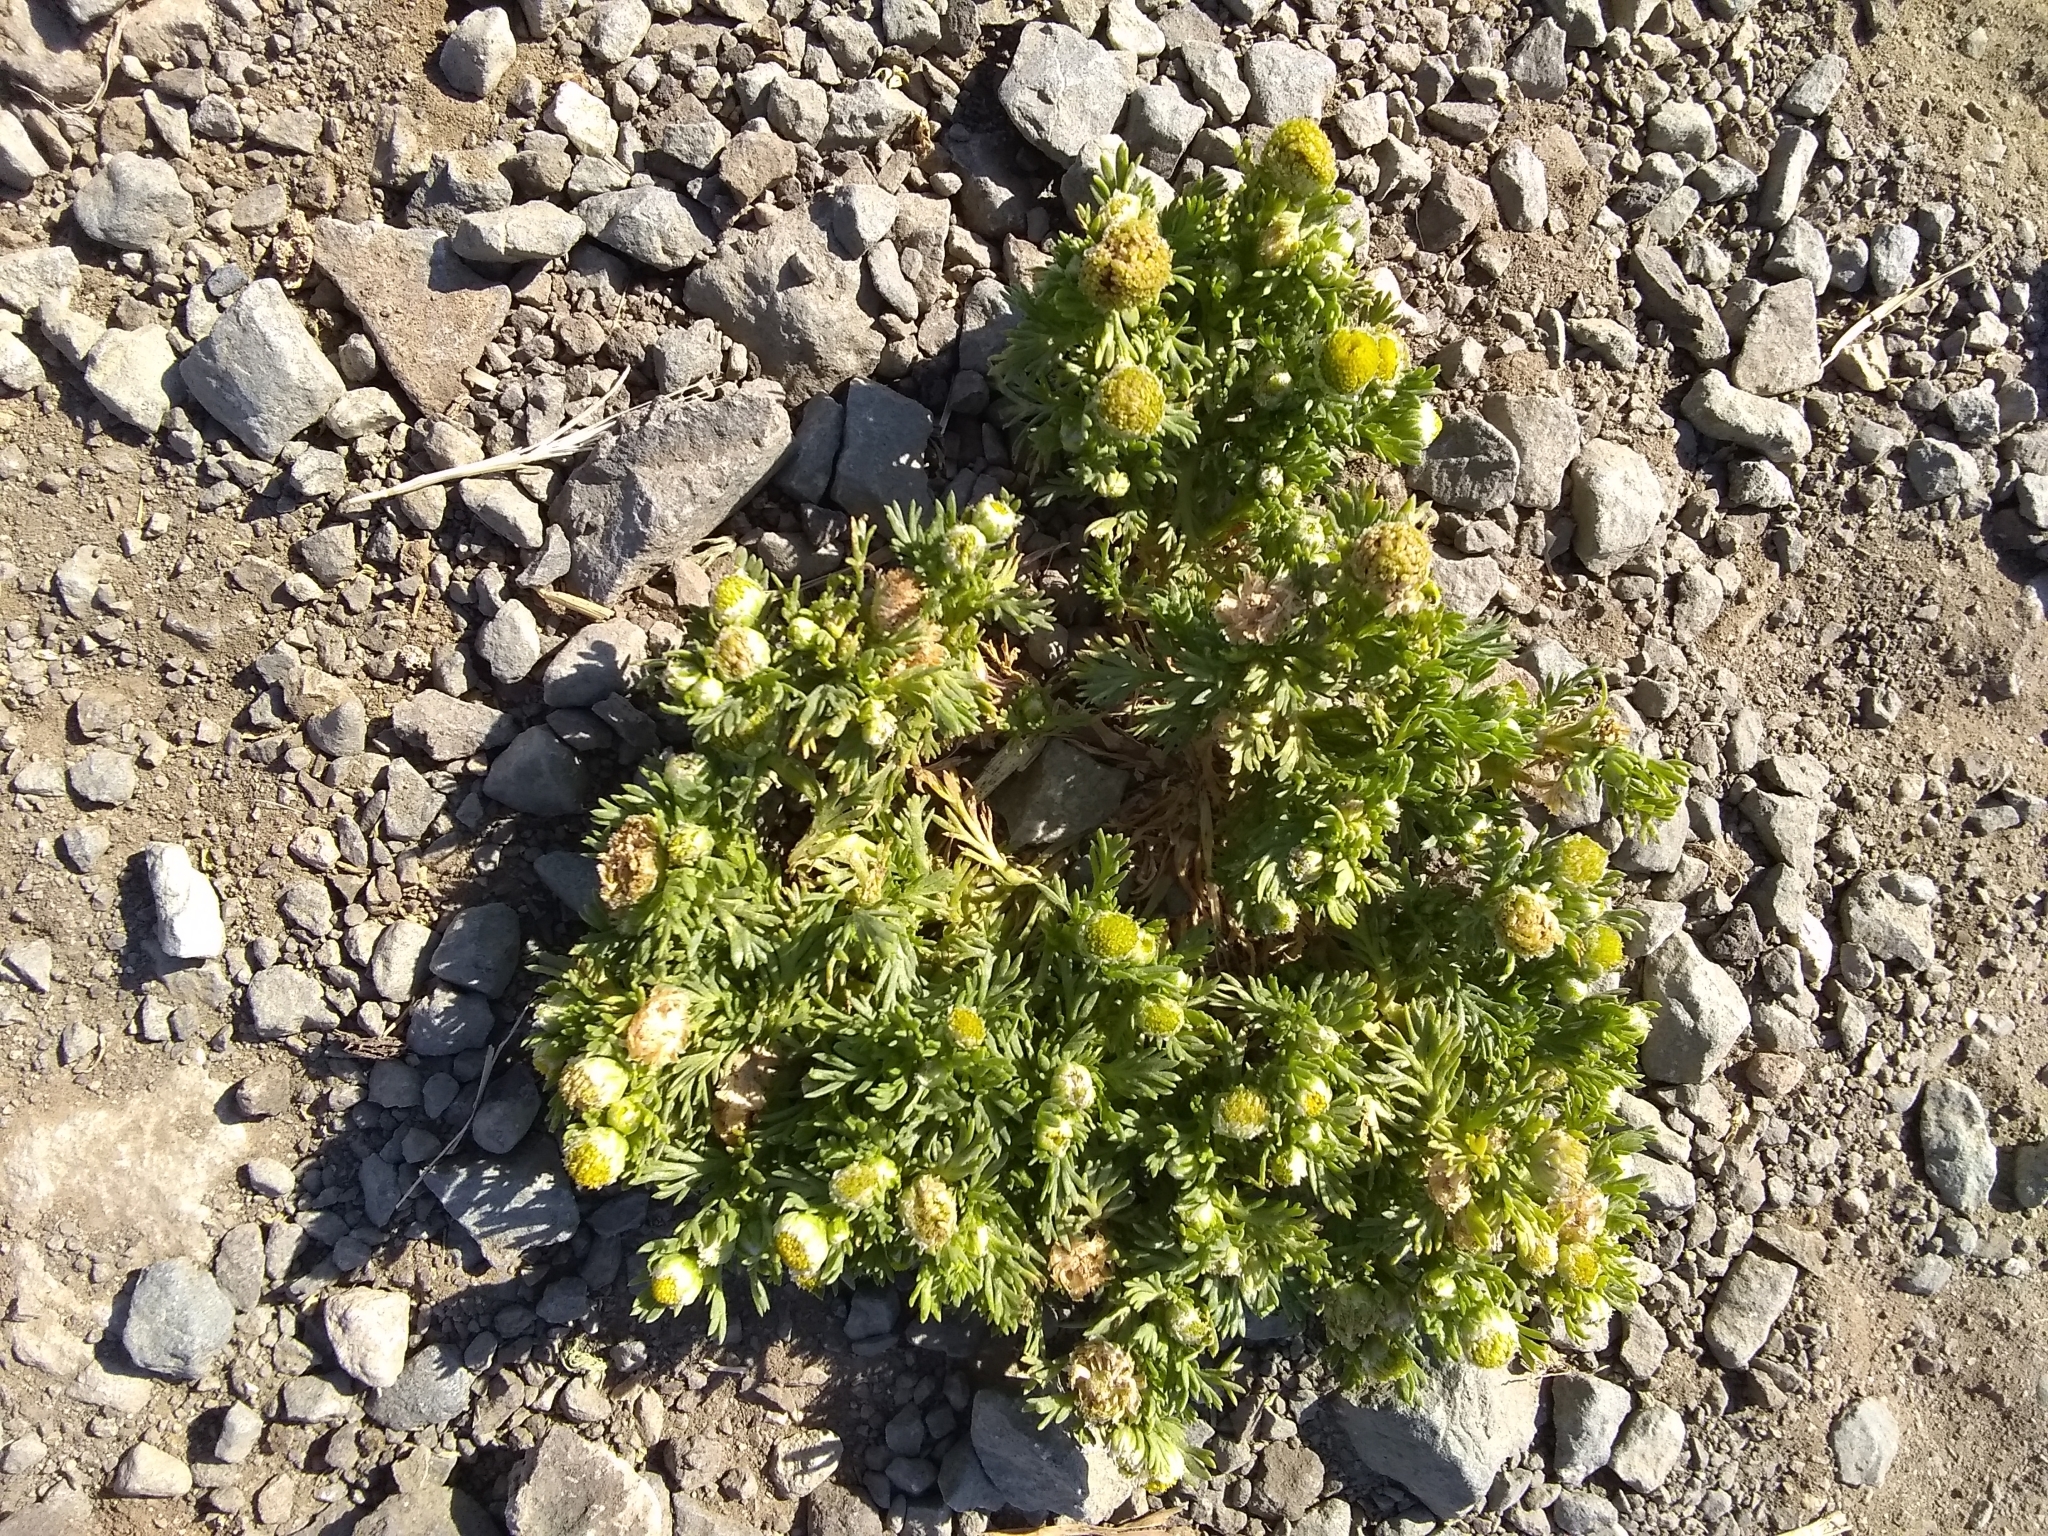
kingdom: Plantae
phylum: Tracheophyta
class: Magnoliopsida
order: Asterales
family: Asteraceae
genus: Matricaria
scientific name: Matricaria discoidea
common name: Disc mayweed
